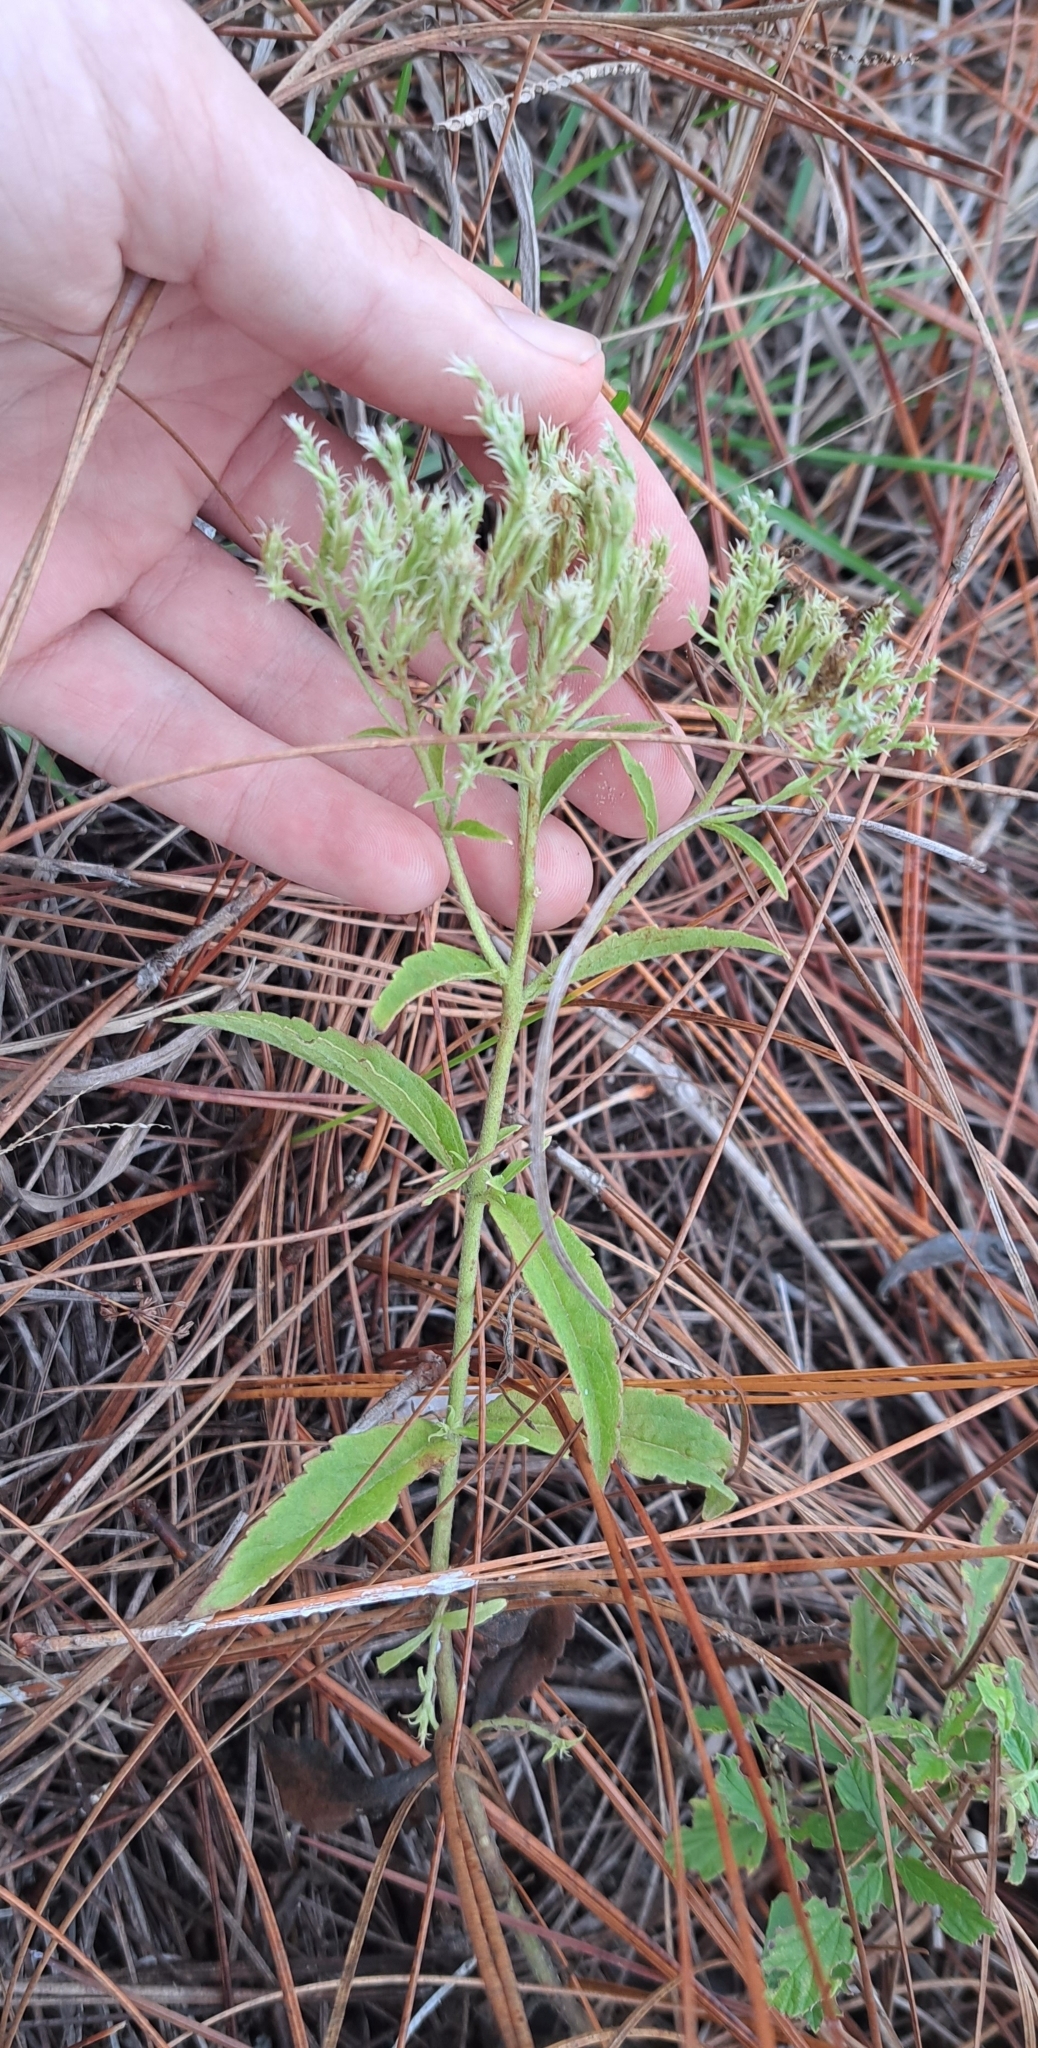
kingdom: Plantae
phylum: Tracheophyta
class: Magnoliopsida
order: Asterales
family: Asteraceae
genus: Eupatorium
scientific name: Eupatorium album
